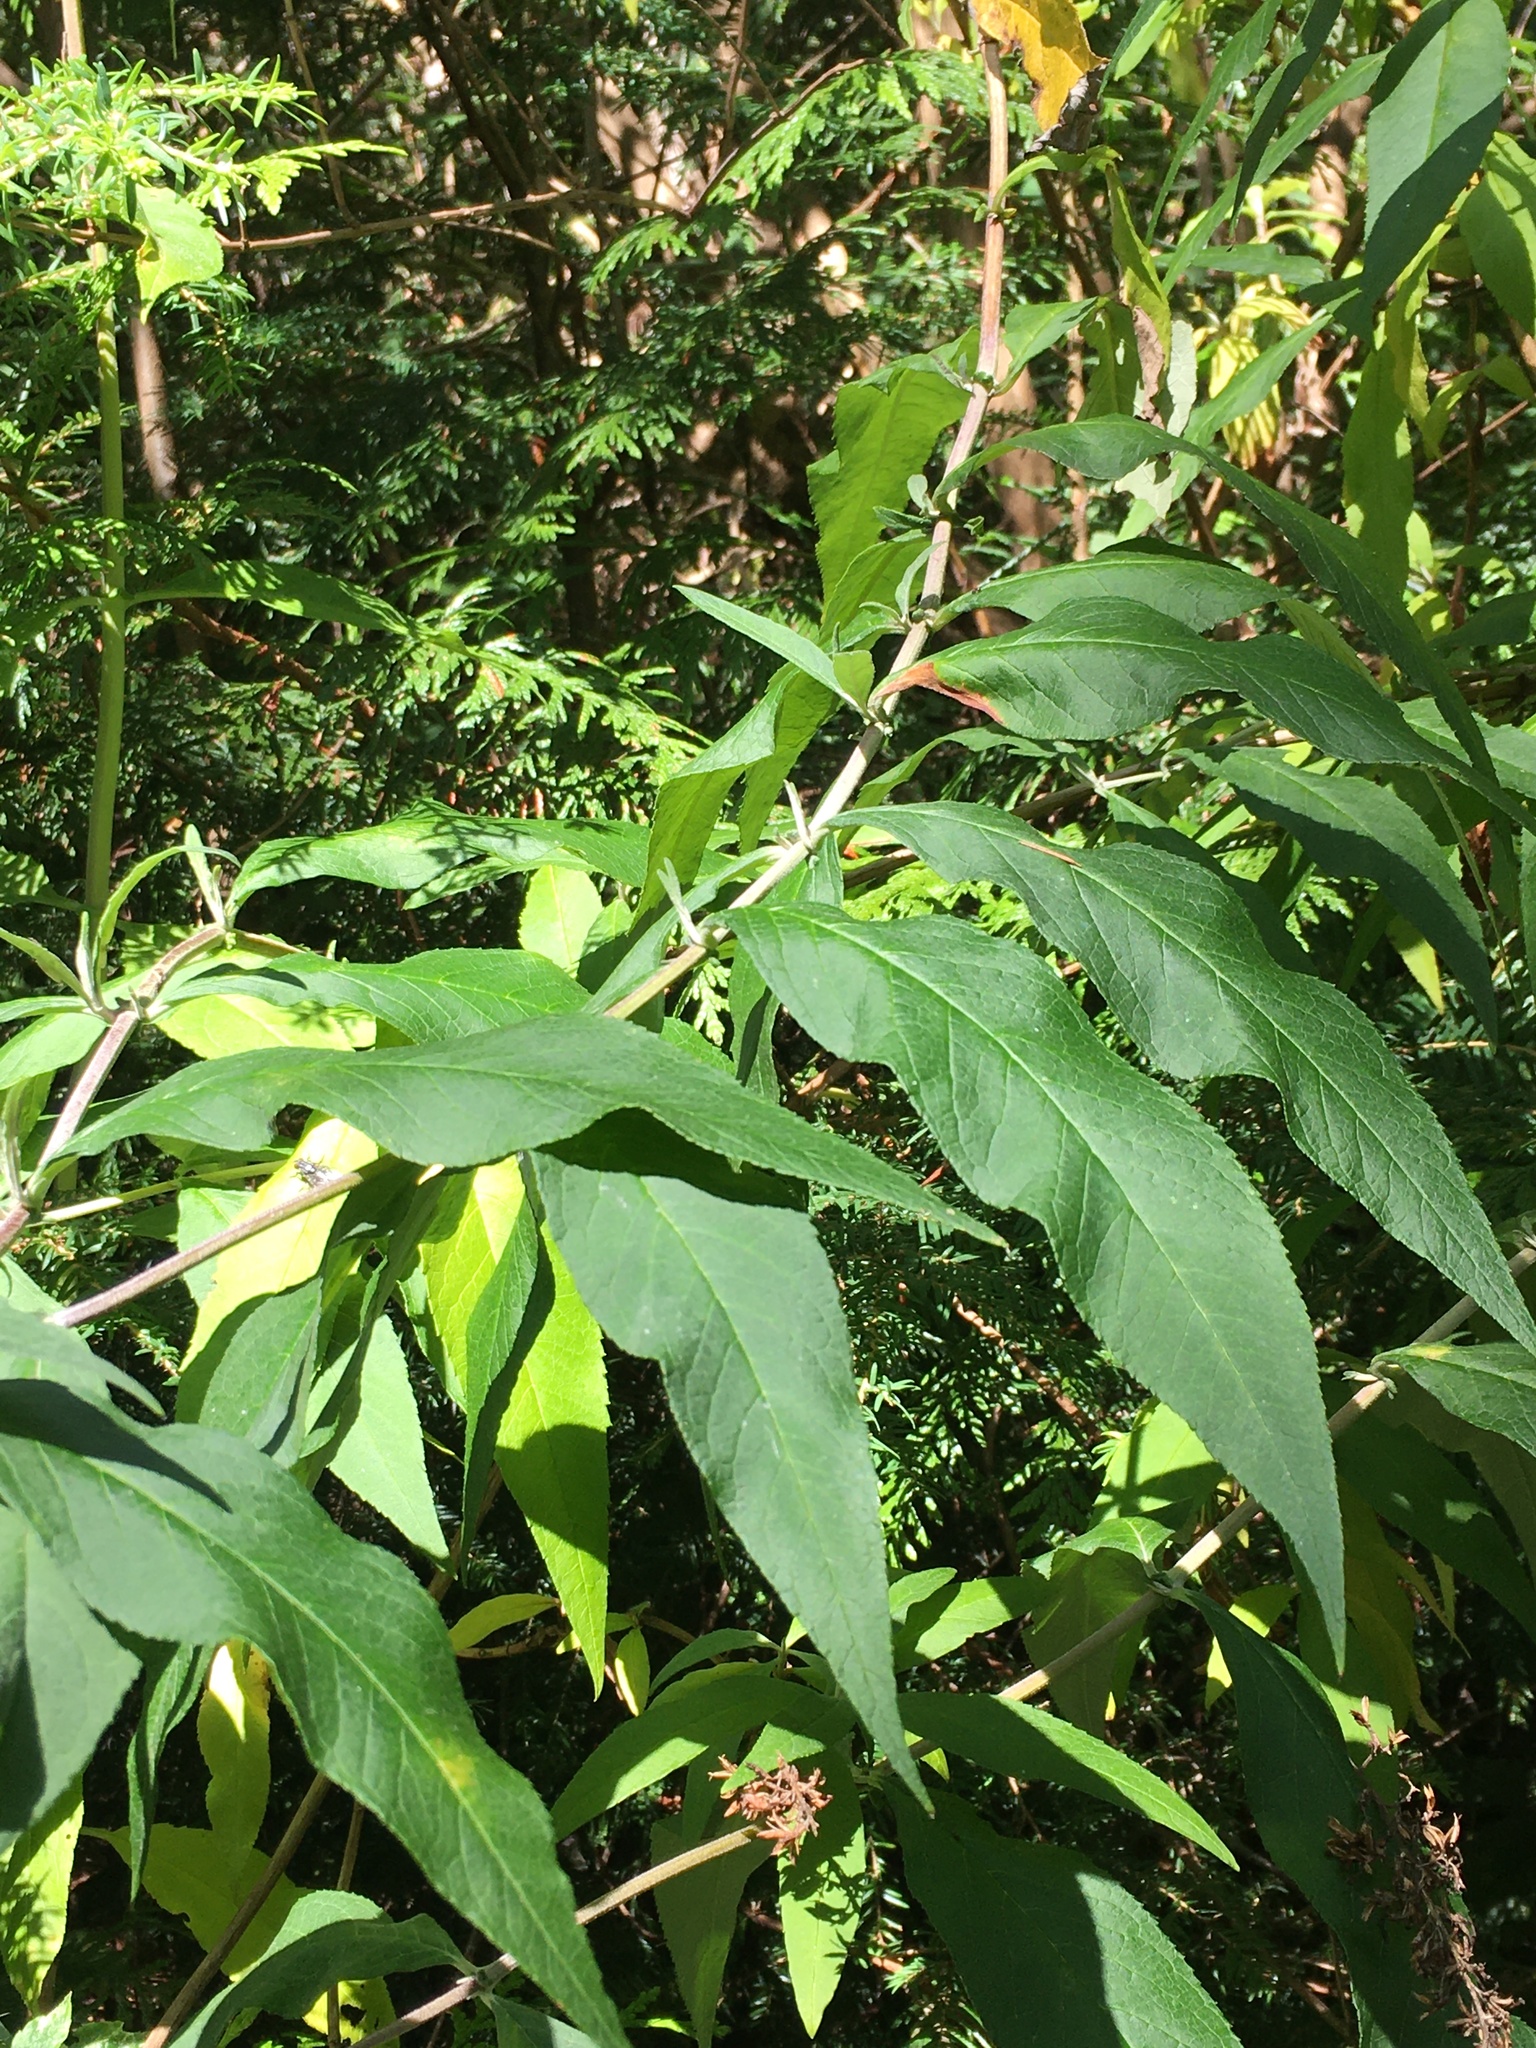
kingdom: Plantae
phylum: Tracheophyta
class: Magnoliopsida
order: Lamiales
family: Scrophulariaceae
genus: Buddleja
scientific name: Buddleja davidii
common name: Butterfly-bush
